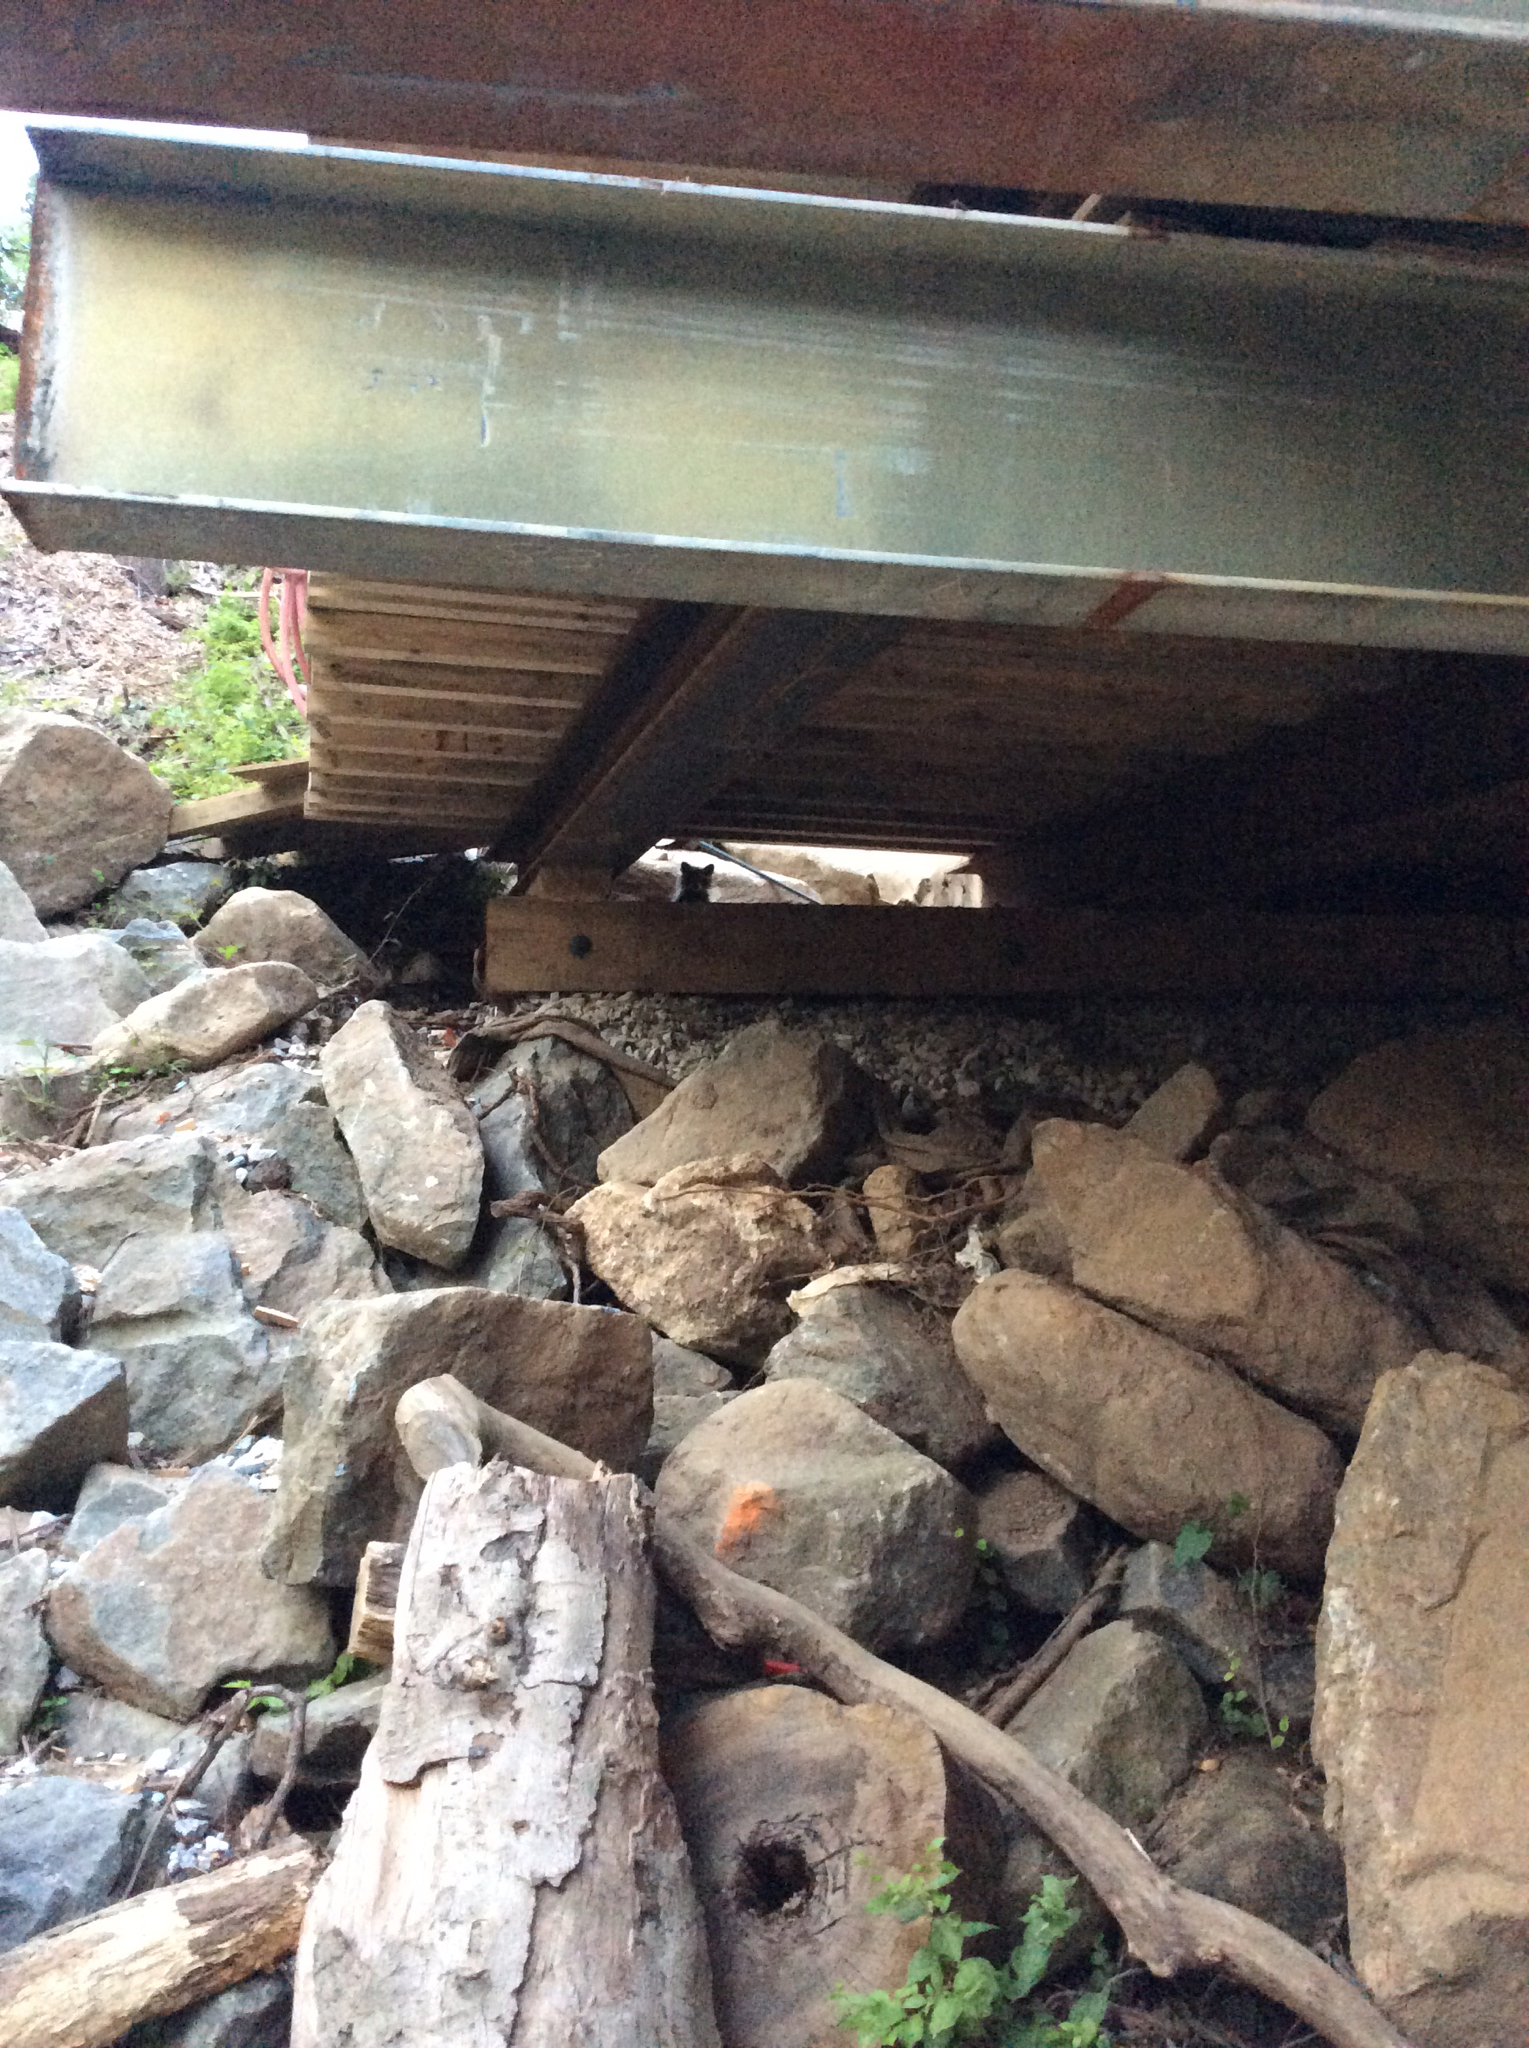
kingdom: Animalia
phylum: Chordata
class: Mammalia
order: Carnivora
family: Procyonidae
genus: Procyon
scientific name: Procyon lotor
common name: Raccoon
